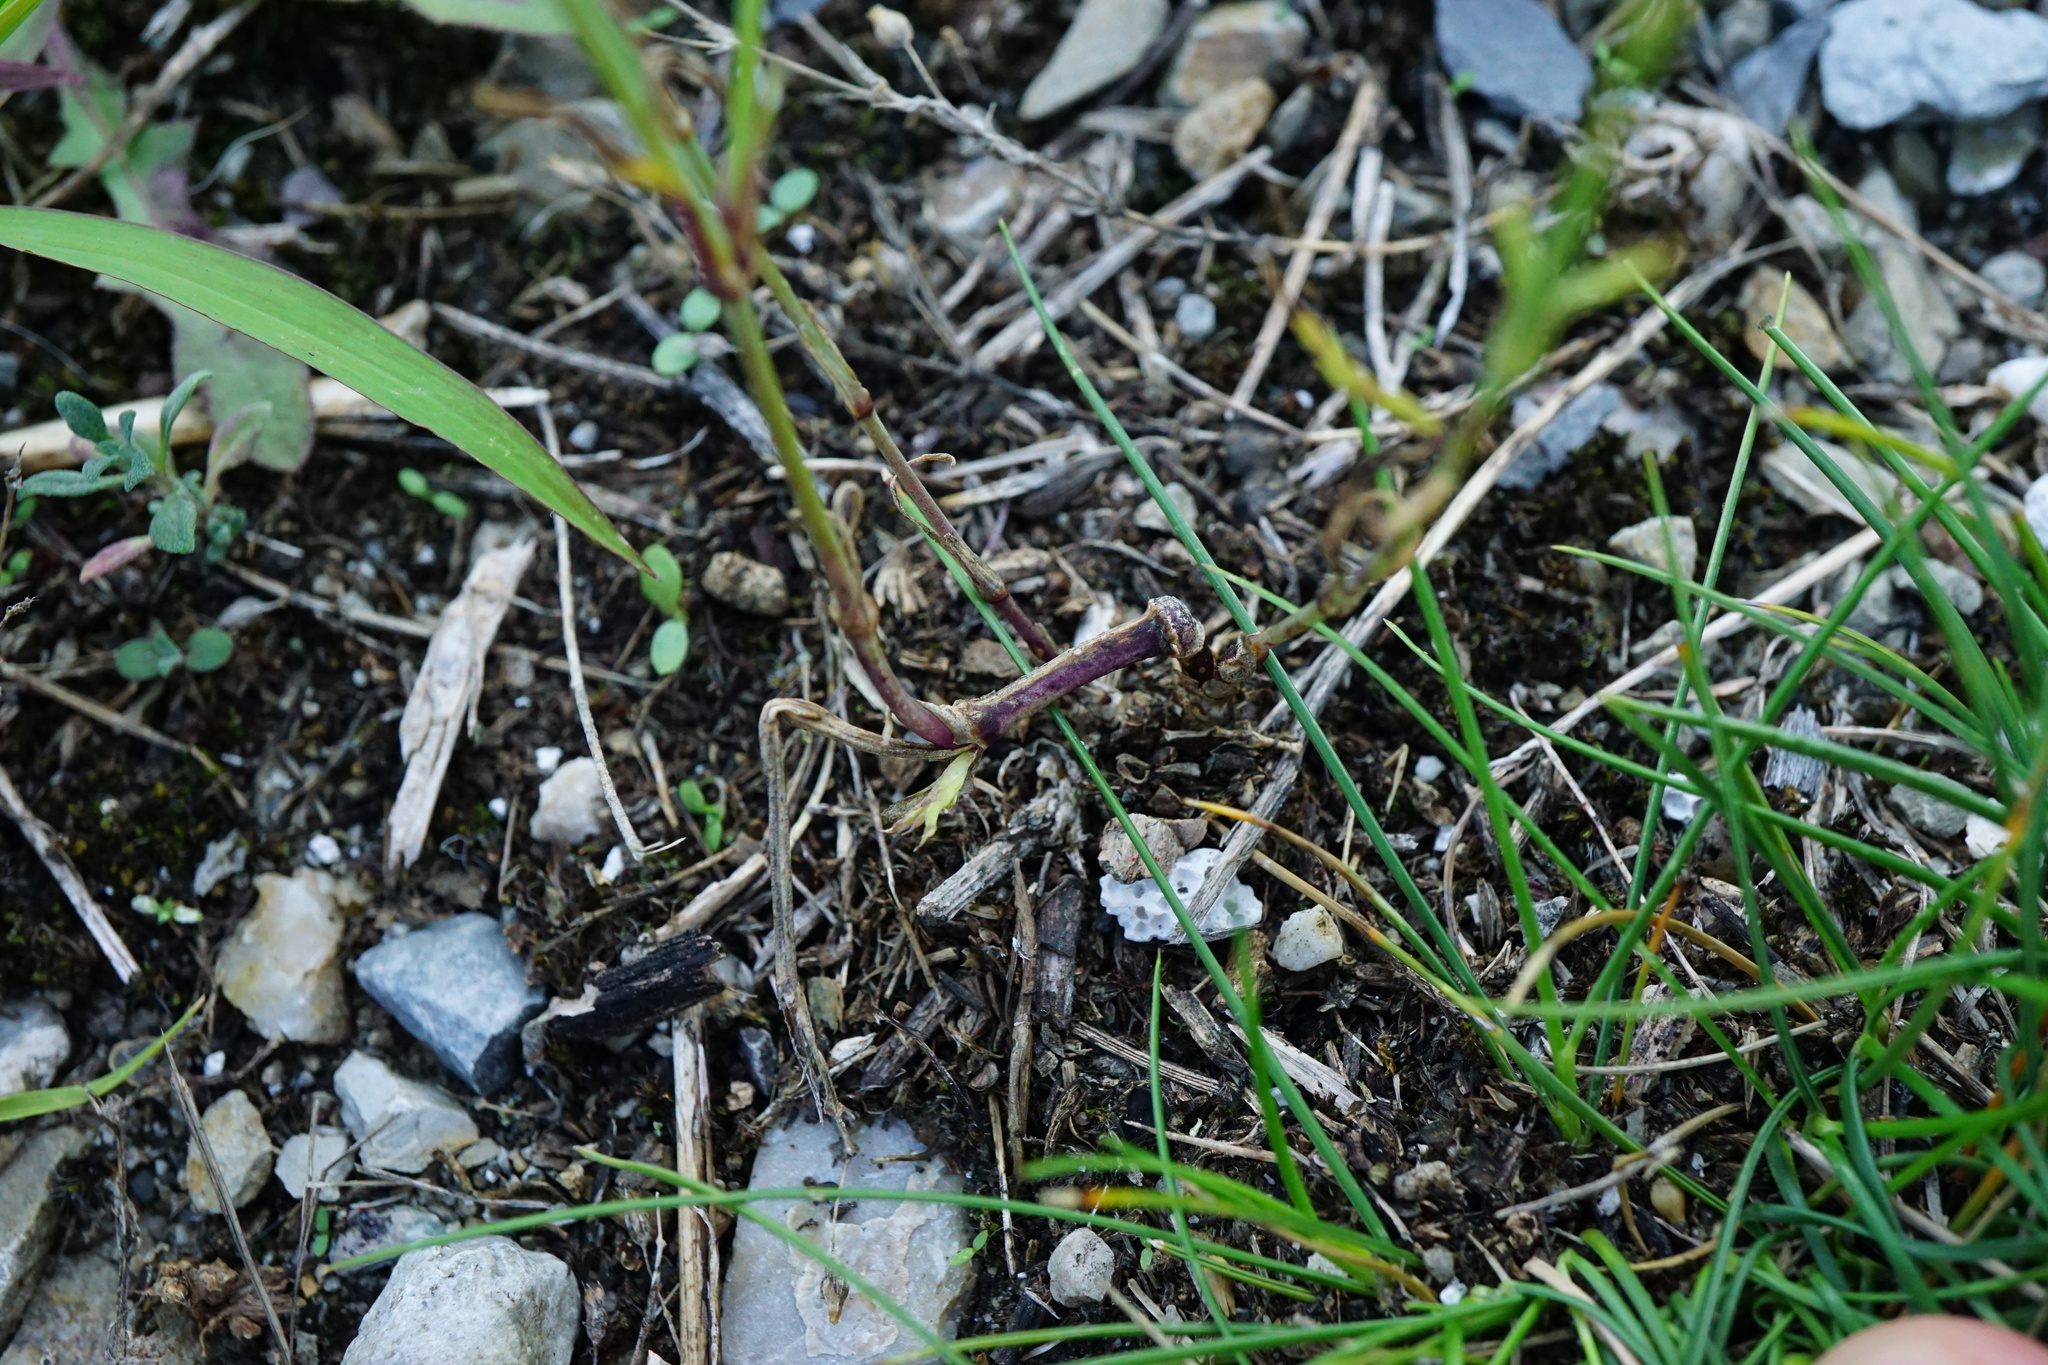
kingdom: Plantae
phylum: Tracheophyta
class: Magnoliopsida
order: Caryophyllales
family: Caryophyllaceae
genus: Petrorhagia
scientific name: Petrorhagia prolifera
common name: Proliferous pink
